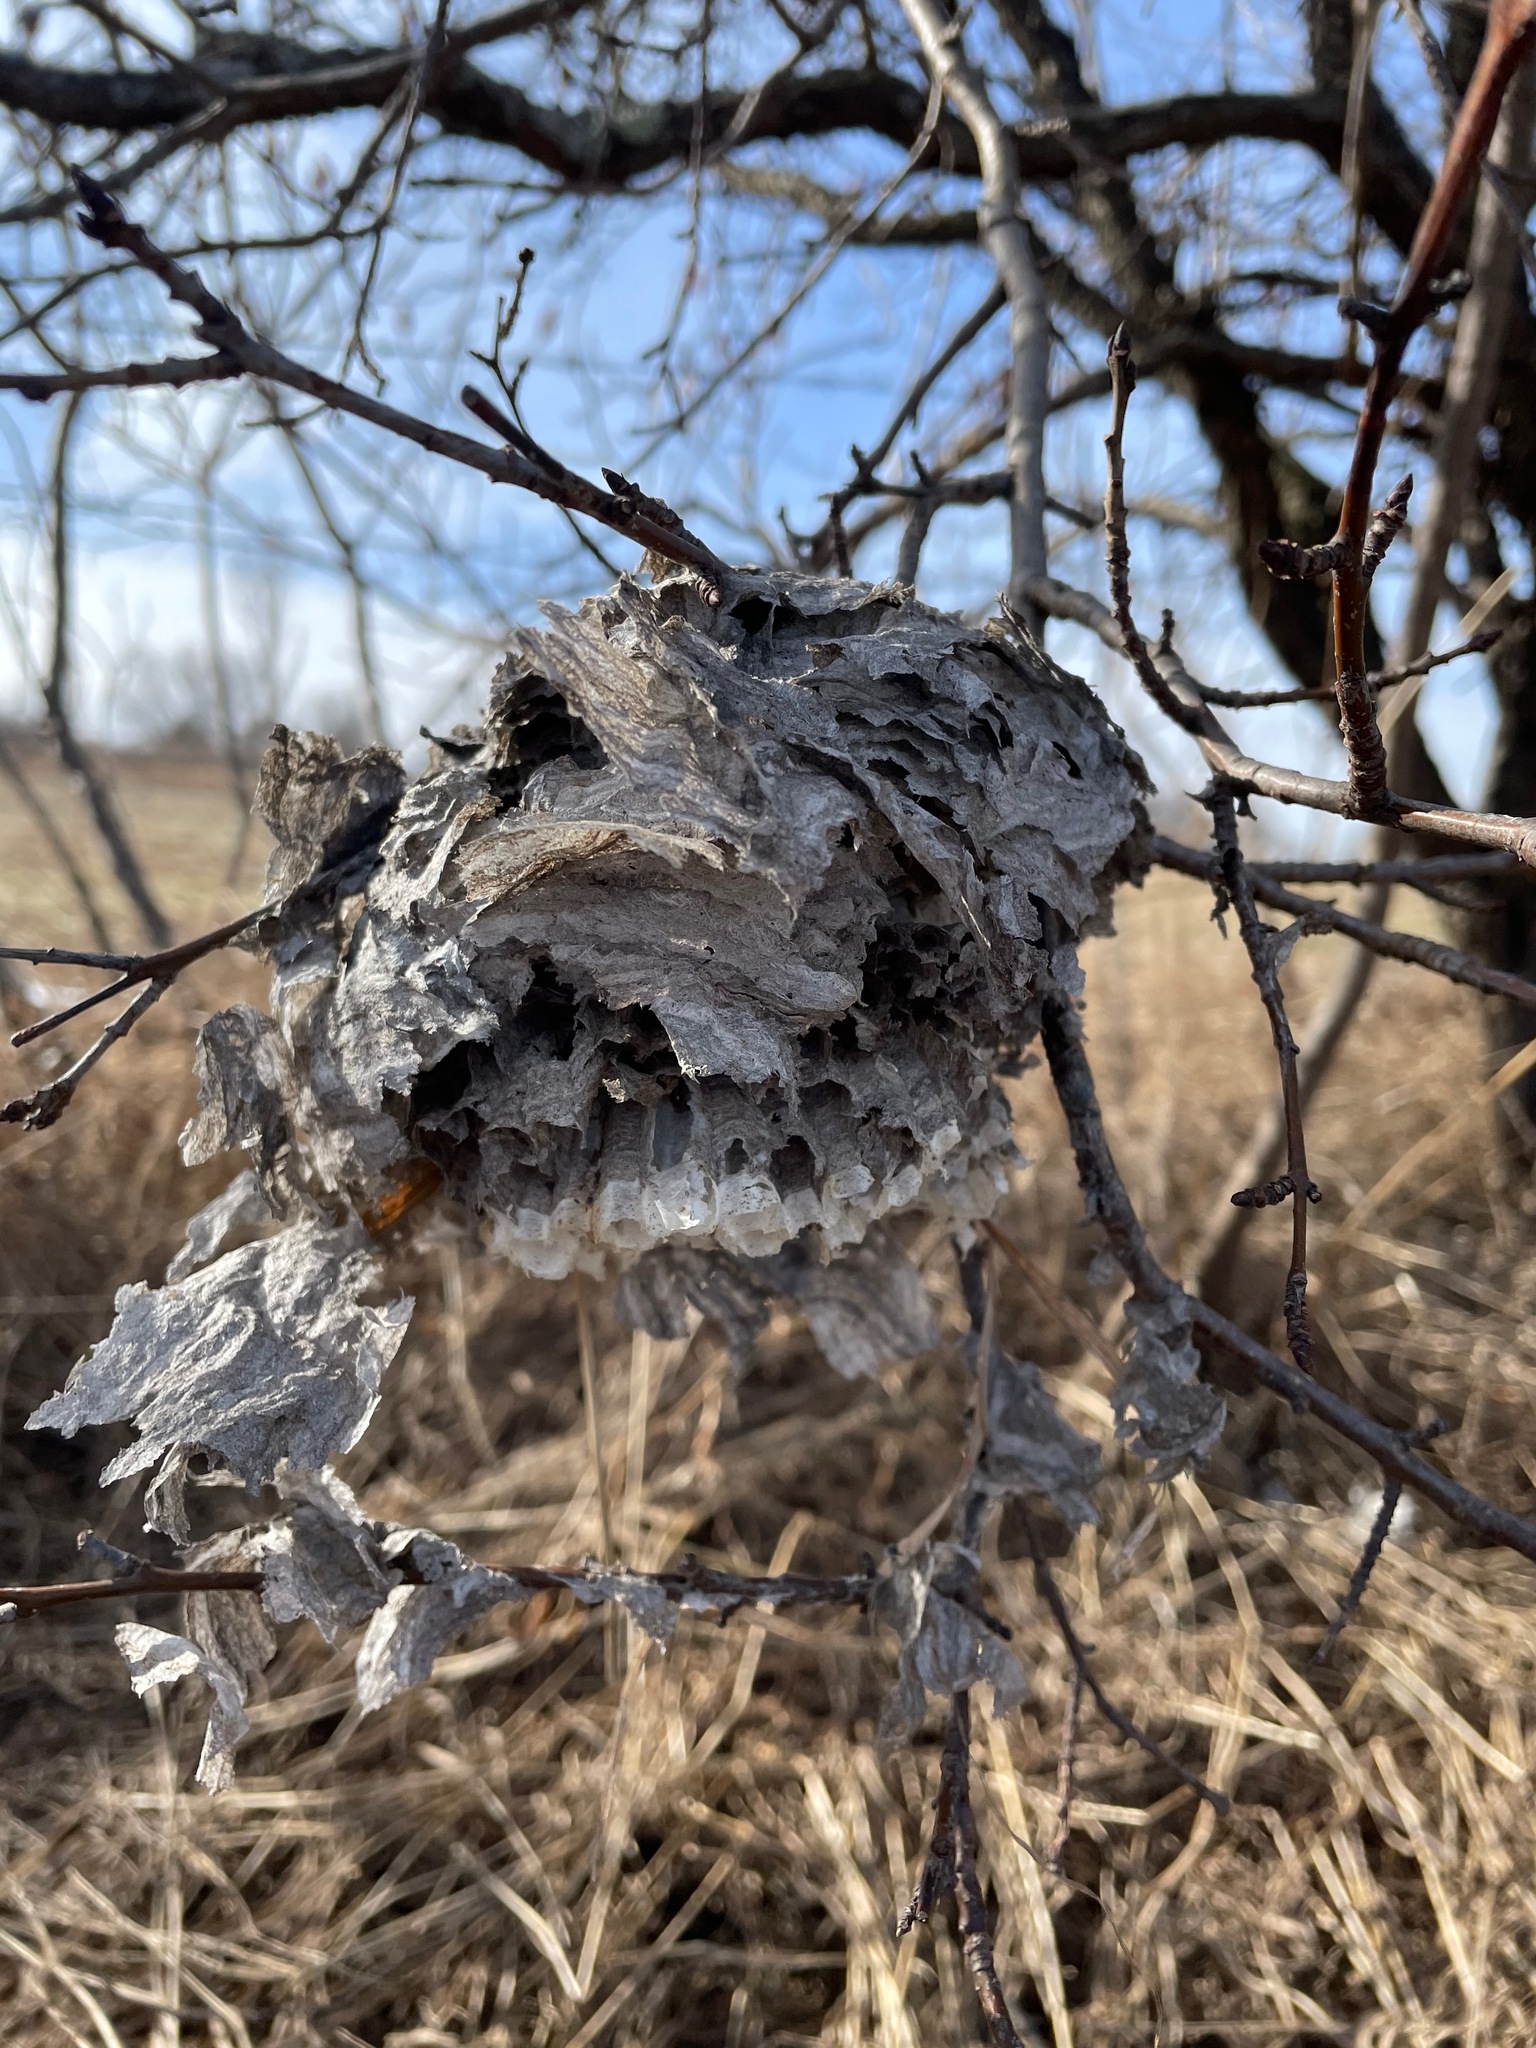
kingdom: Animalia
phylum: Arthropoda
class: Insecta
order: Hymenoptera
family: Vespidae
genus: Dolichovespula
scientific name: Dolichovespula
